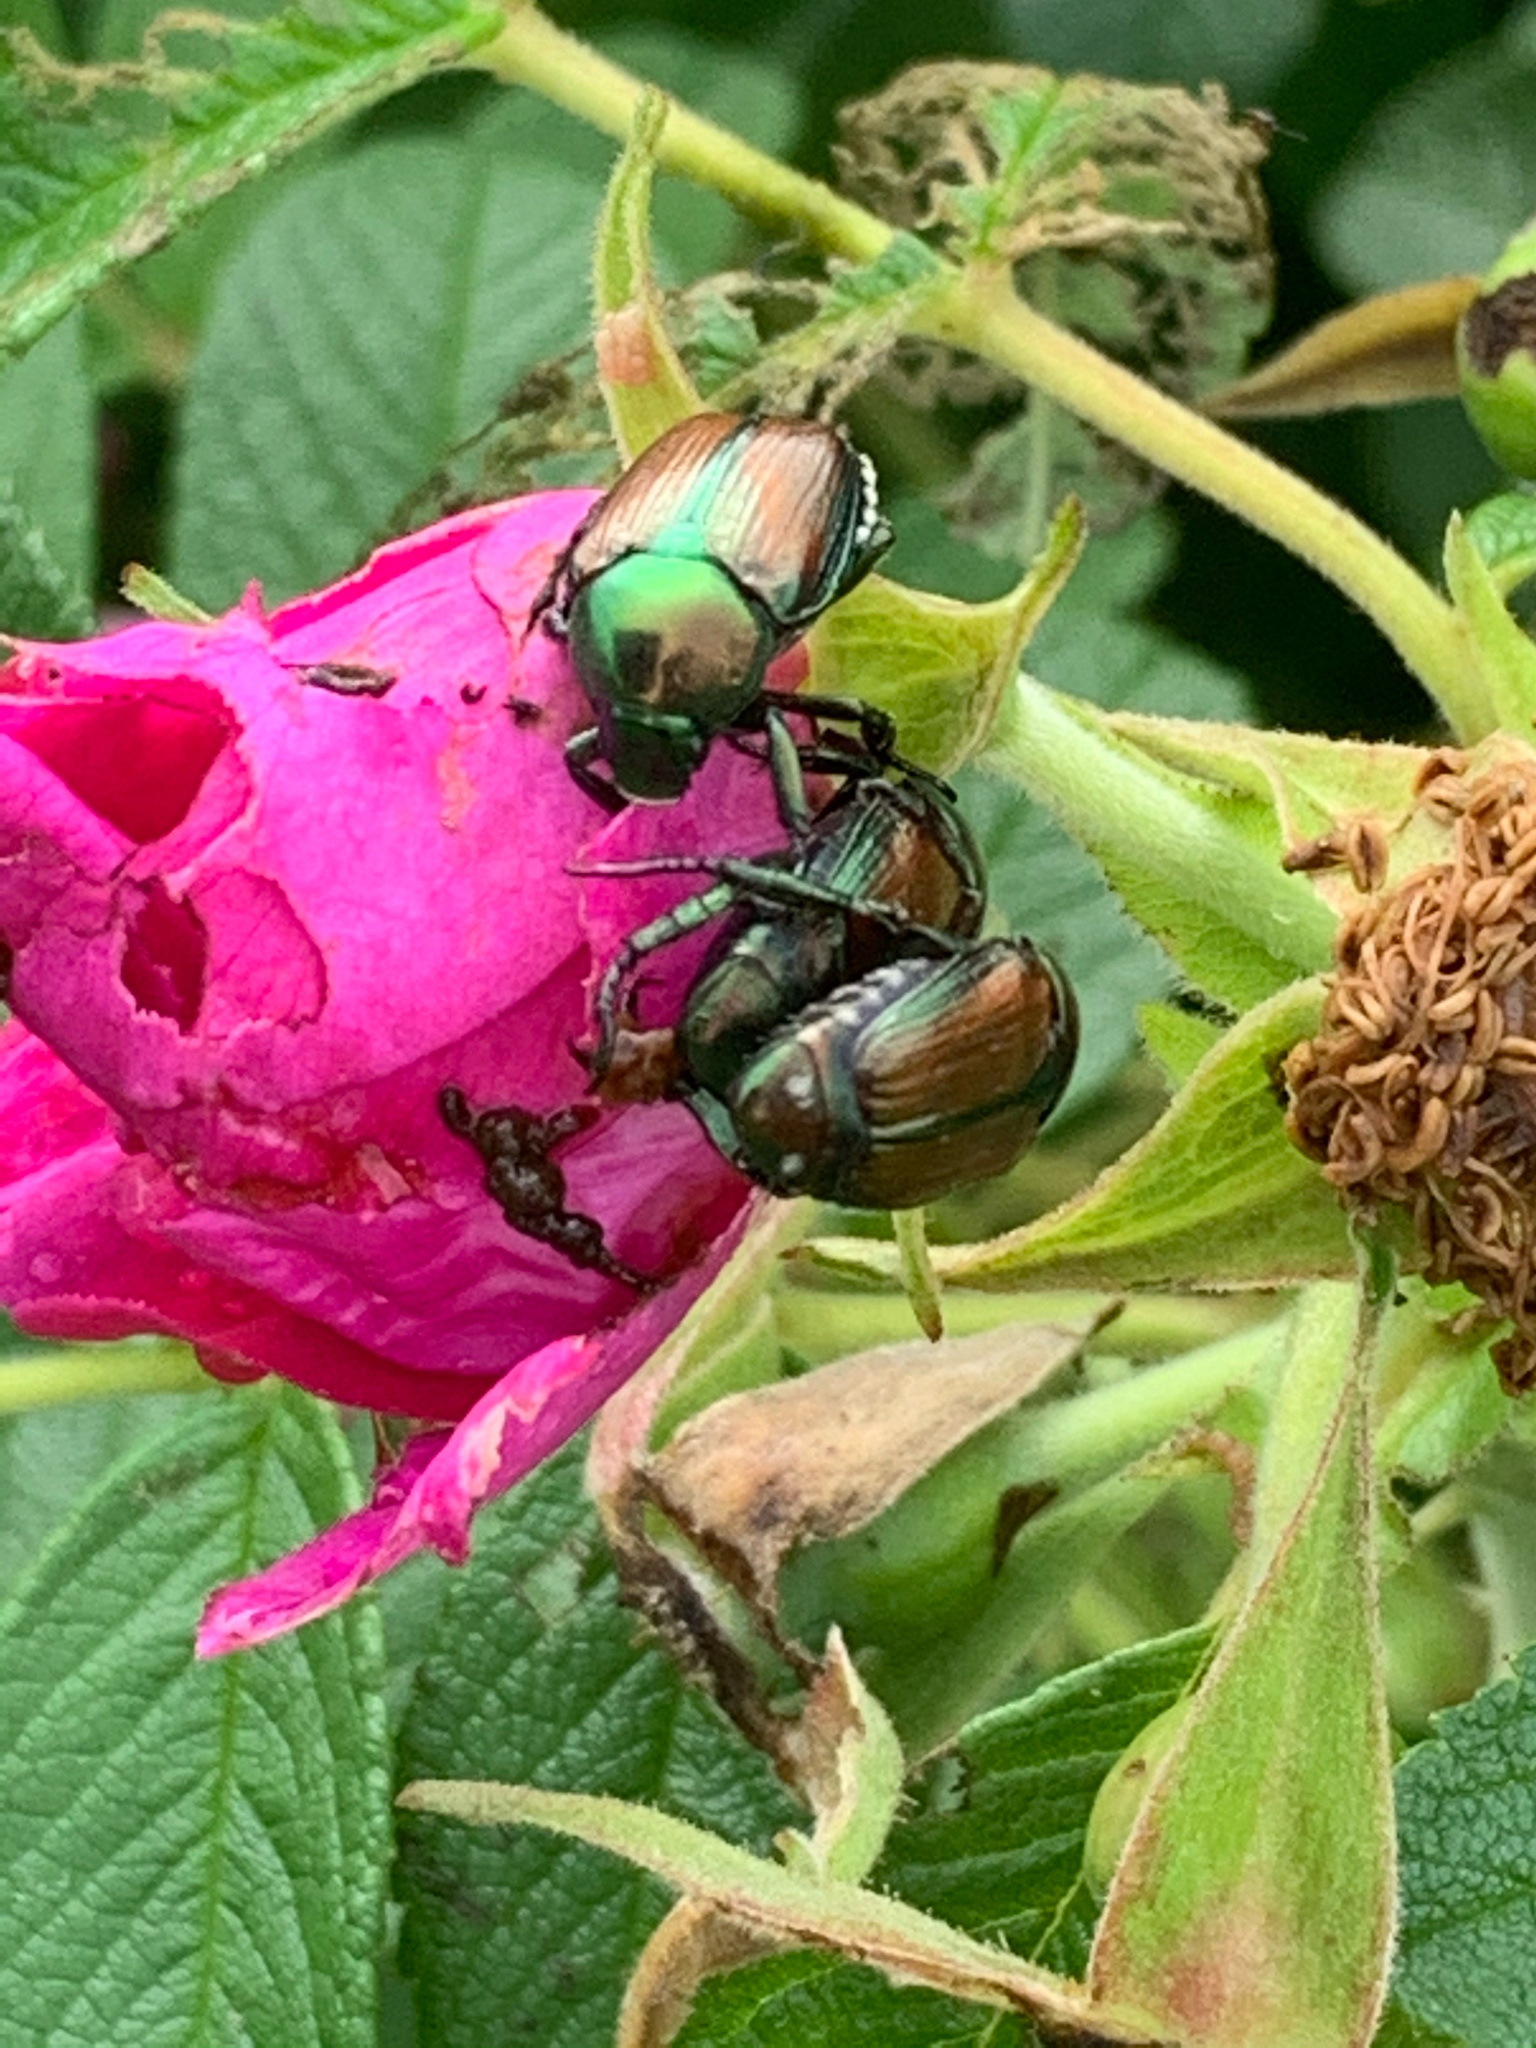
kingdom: Animalia
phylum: Arthropoda
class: Insecta
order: Coleoptera
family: Scarabaeidae
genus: Popillia
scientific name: Popillia japonica
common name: Japanese beetle
